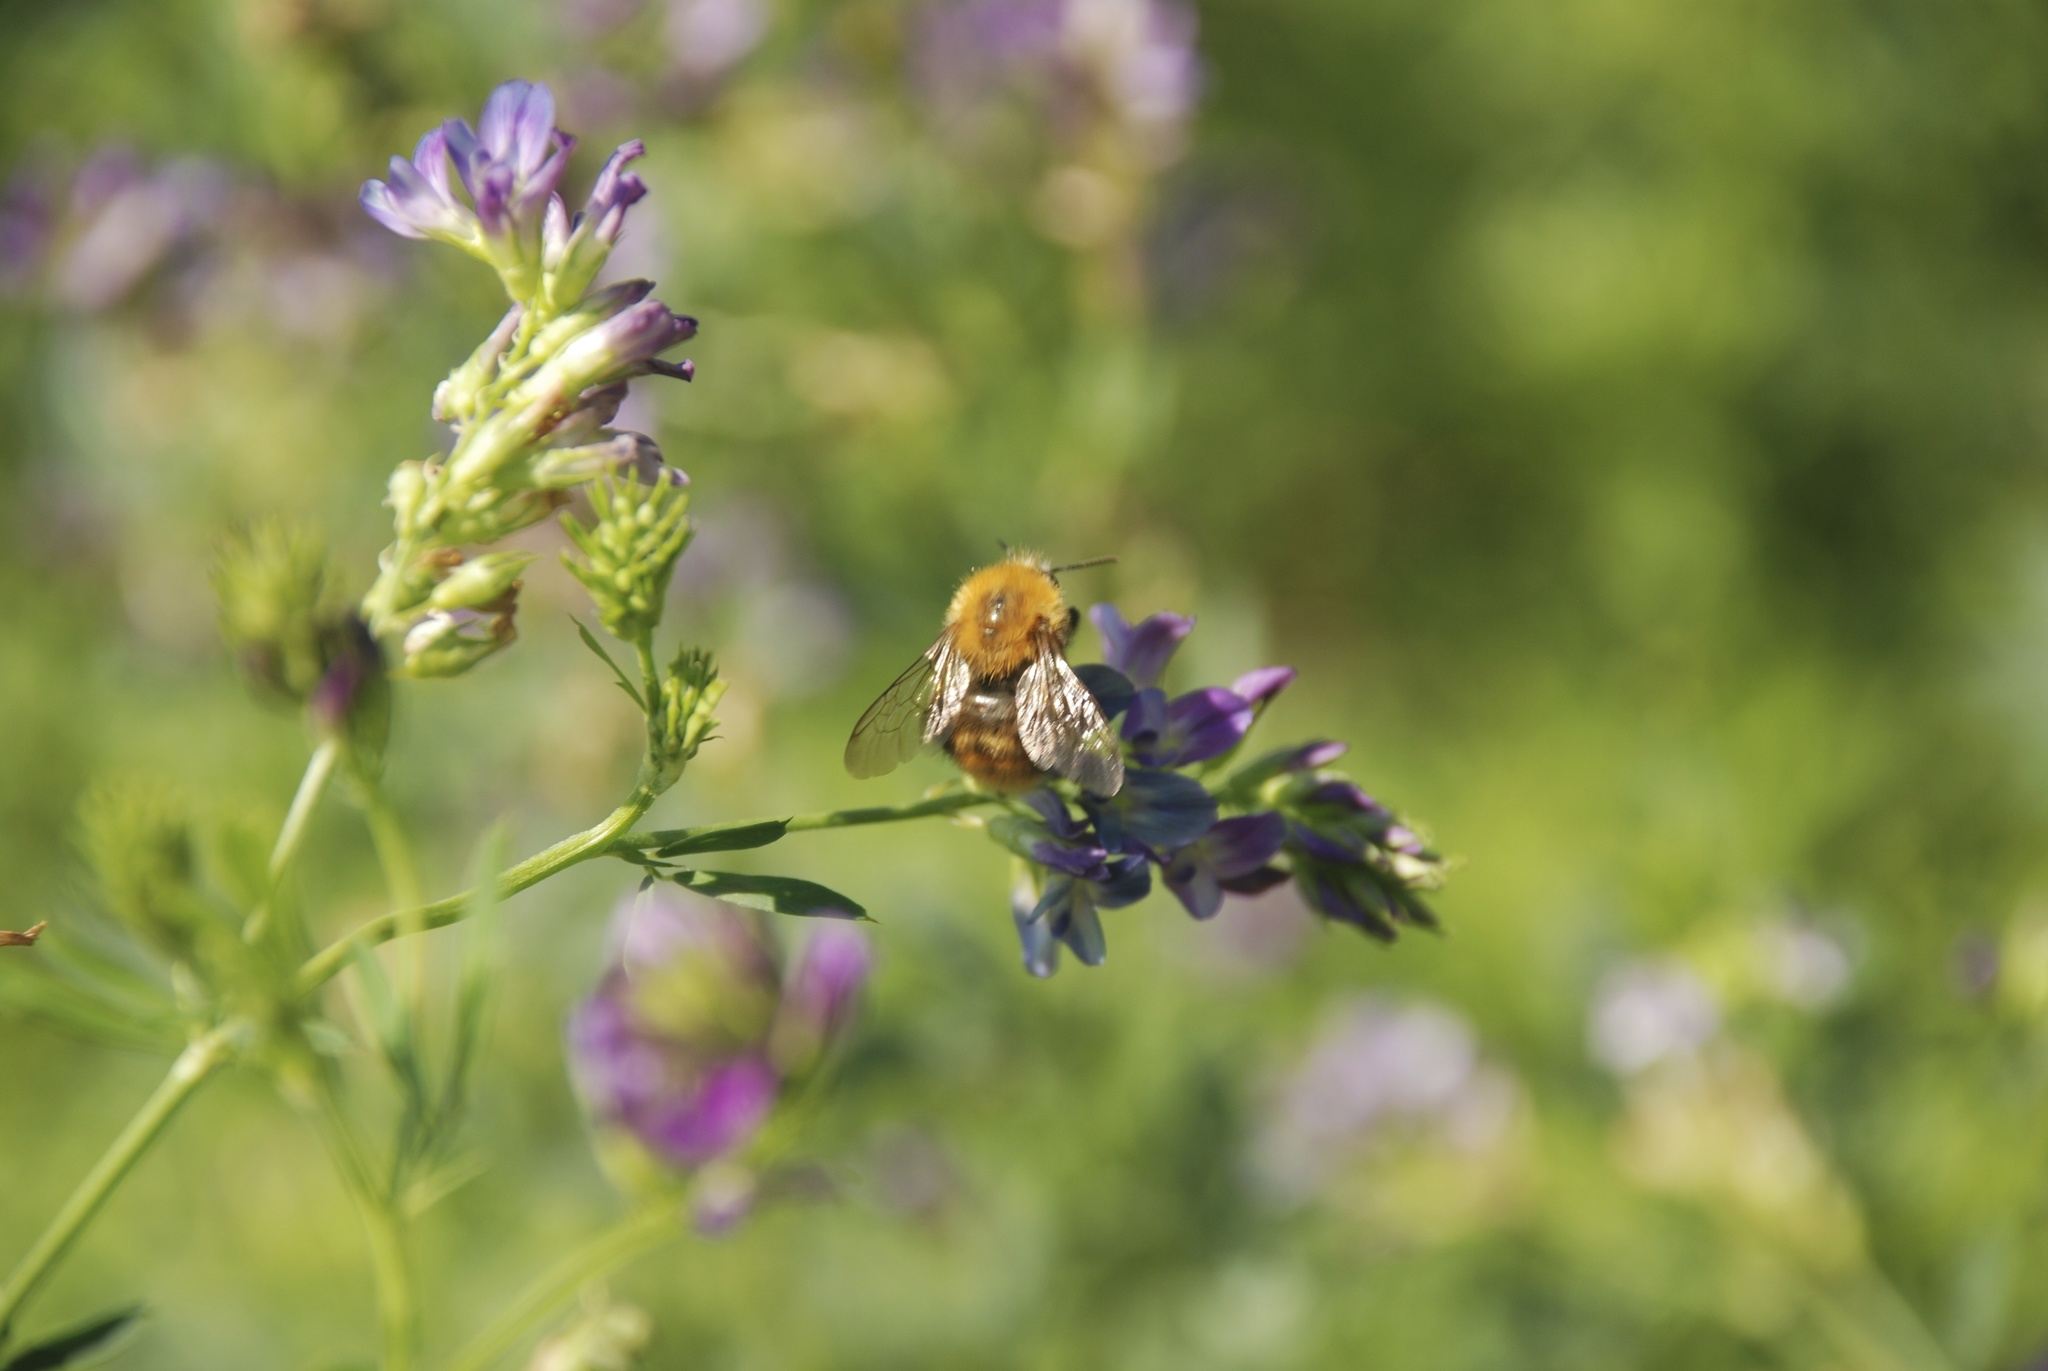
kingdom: Animalia
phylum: Arthropoda
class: Insecta
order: Hymenoptera
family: Apidae
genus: Bombus
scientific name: Bombus pascuorum
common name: Common carder bee
